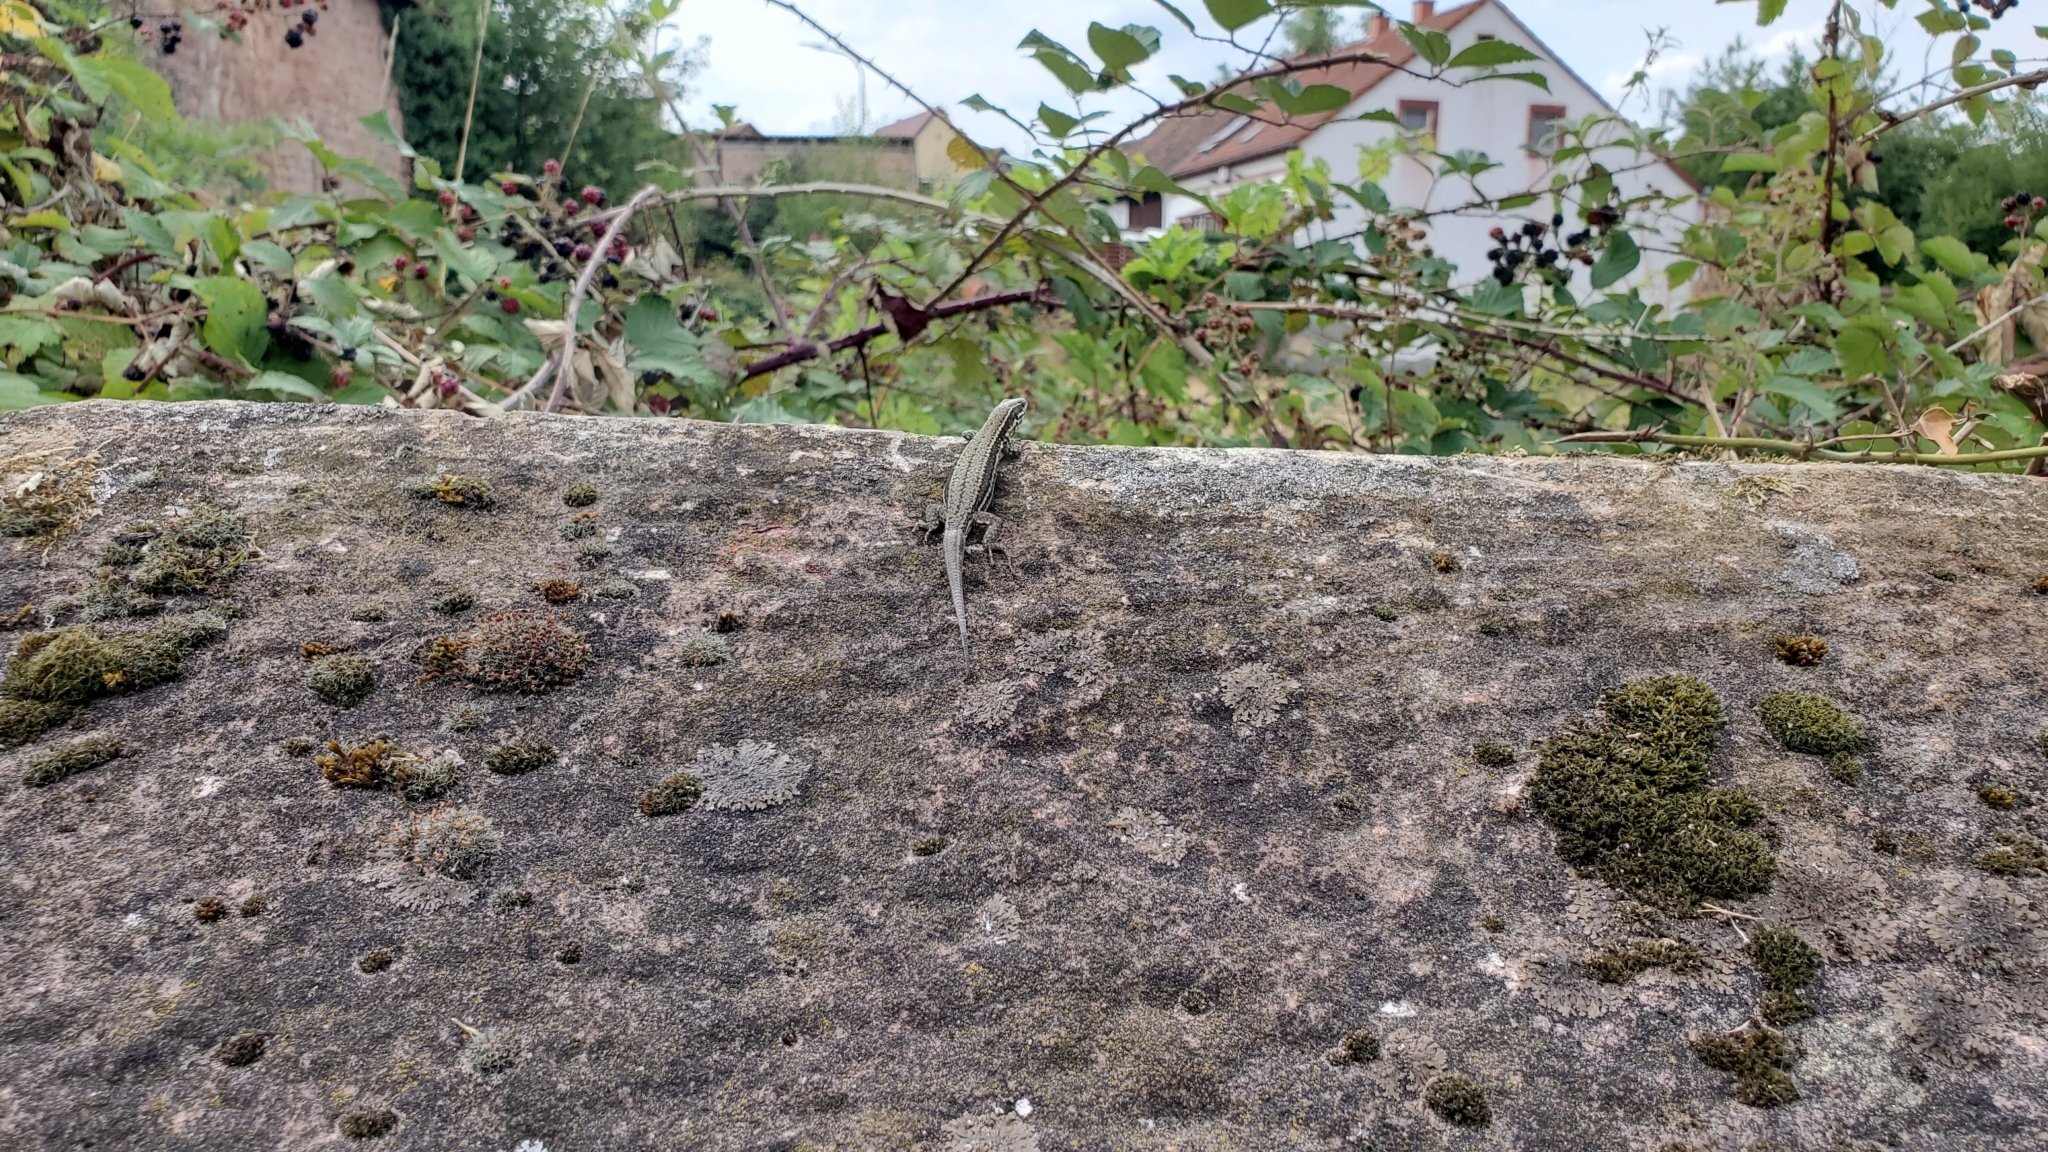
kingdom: Animalia
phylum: Chordata
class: Squamata
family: Lacertidae
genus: Podarcis
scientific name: Podarcis muralis
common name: Common wall lizard
